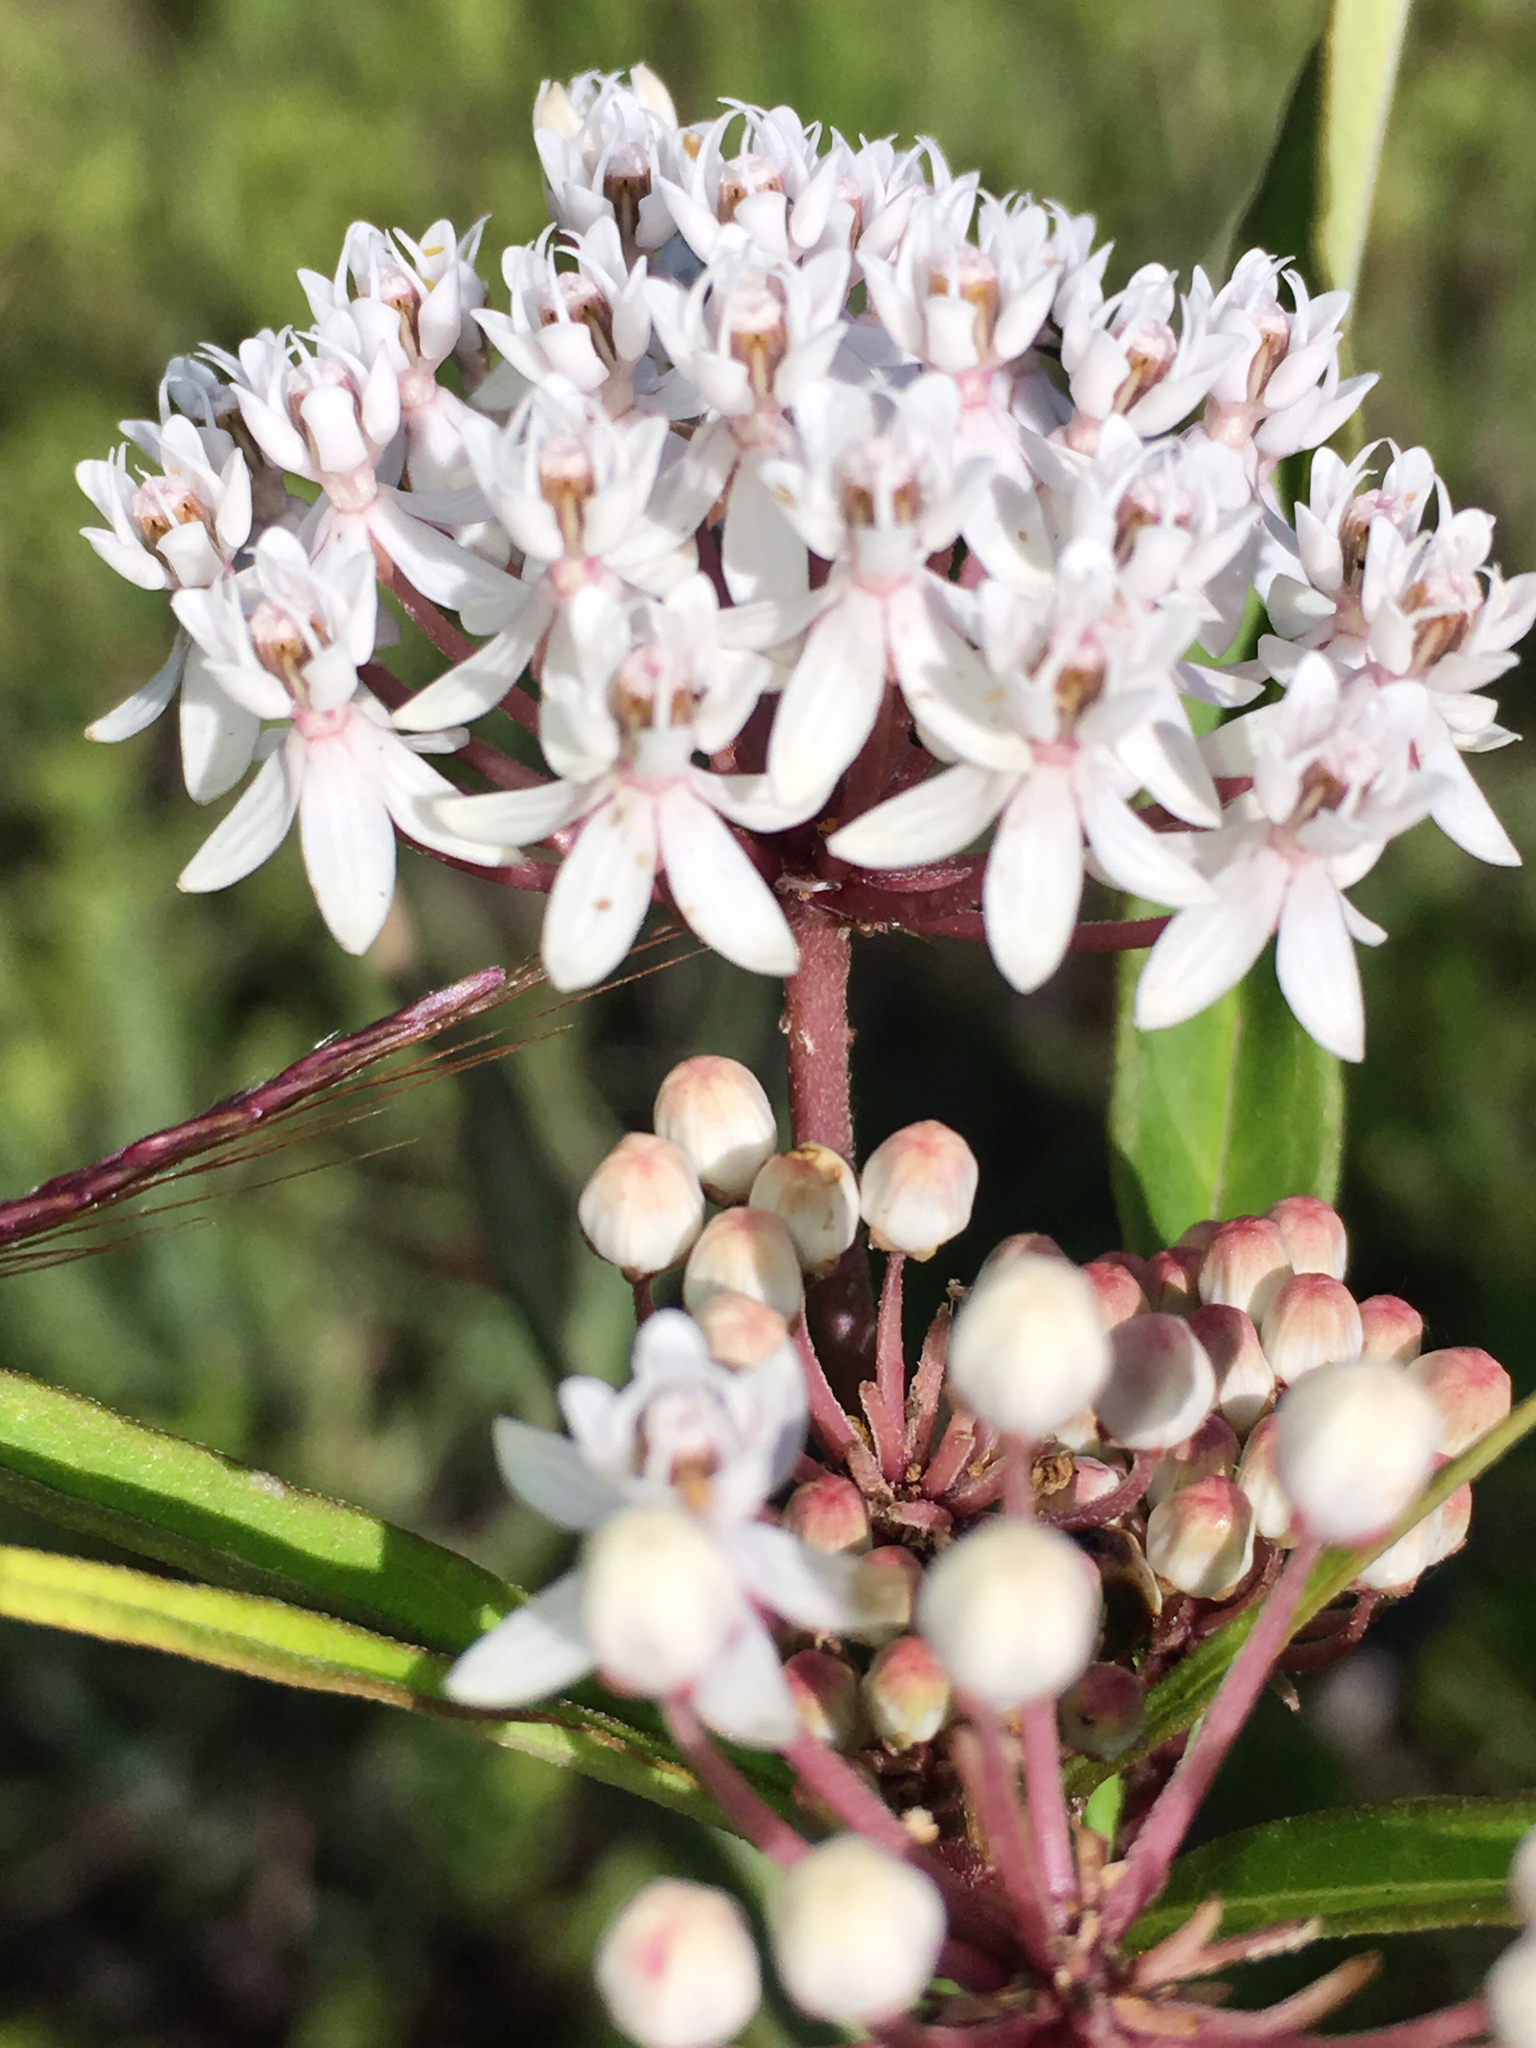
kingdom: Plantae
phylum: Tracheophyta
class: Magnoliopsida
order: Gentianales
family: Apocynaceae
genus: Asclepias
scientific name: Asclepias perennis
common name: Smooth-seed milkweed
